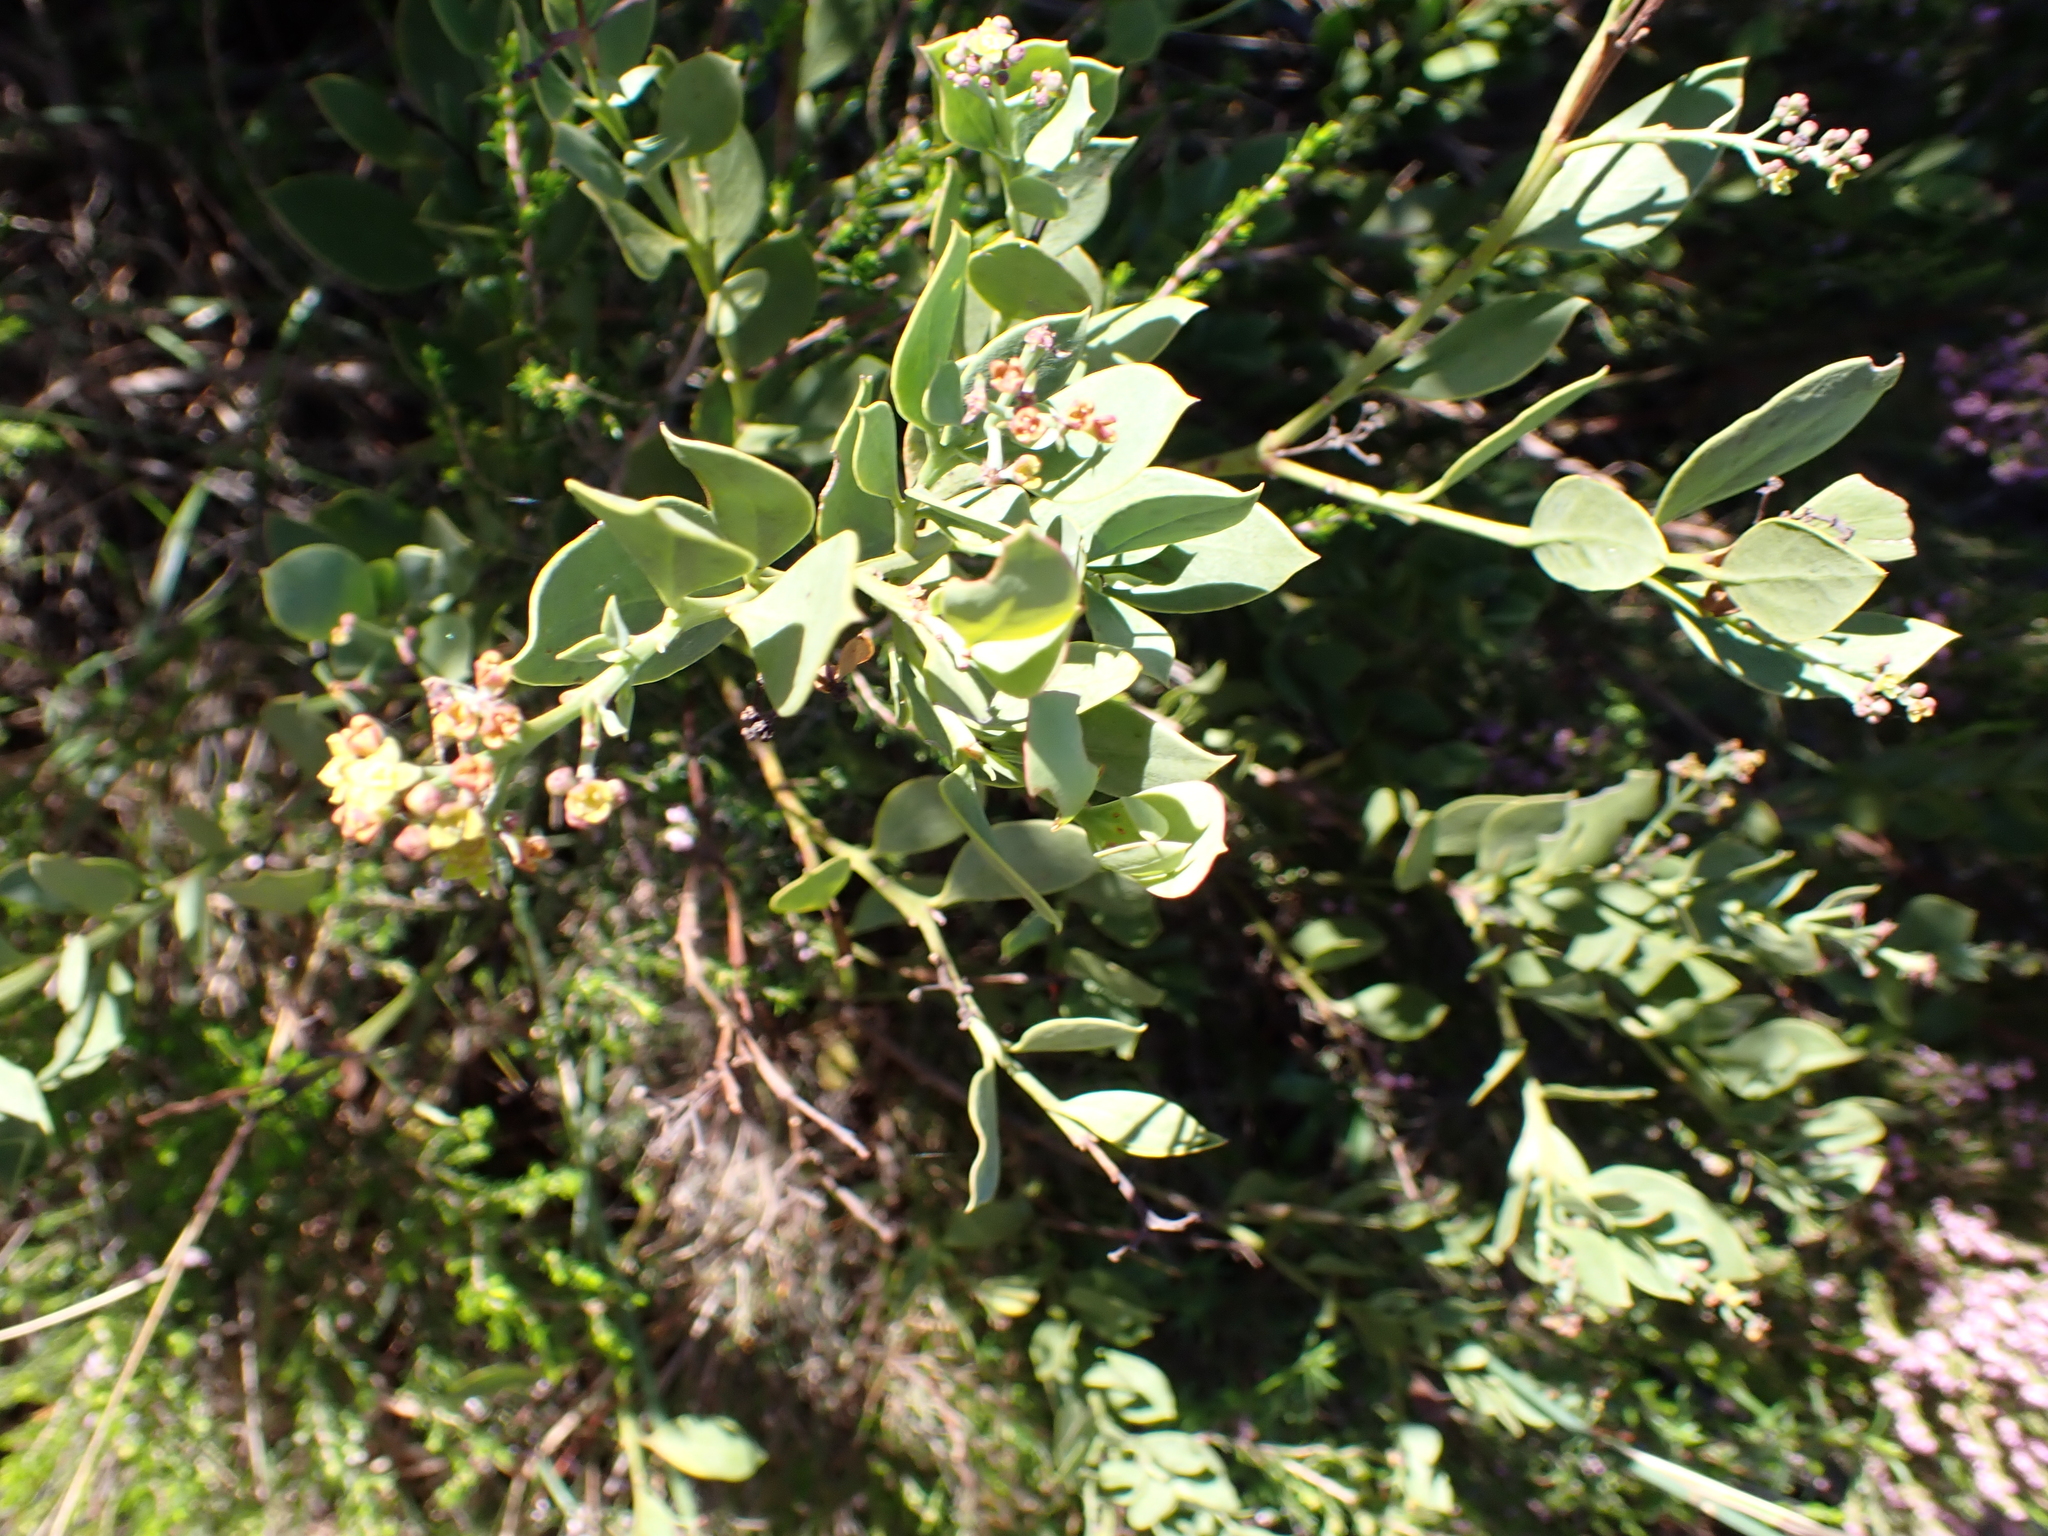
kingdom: Plantae
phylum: Tracheophyta
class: Magnoliopsida
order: Santalales
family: Santalaceae
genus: Osyris
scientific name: Osyris compressa
